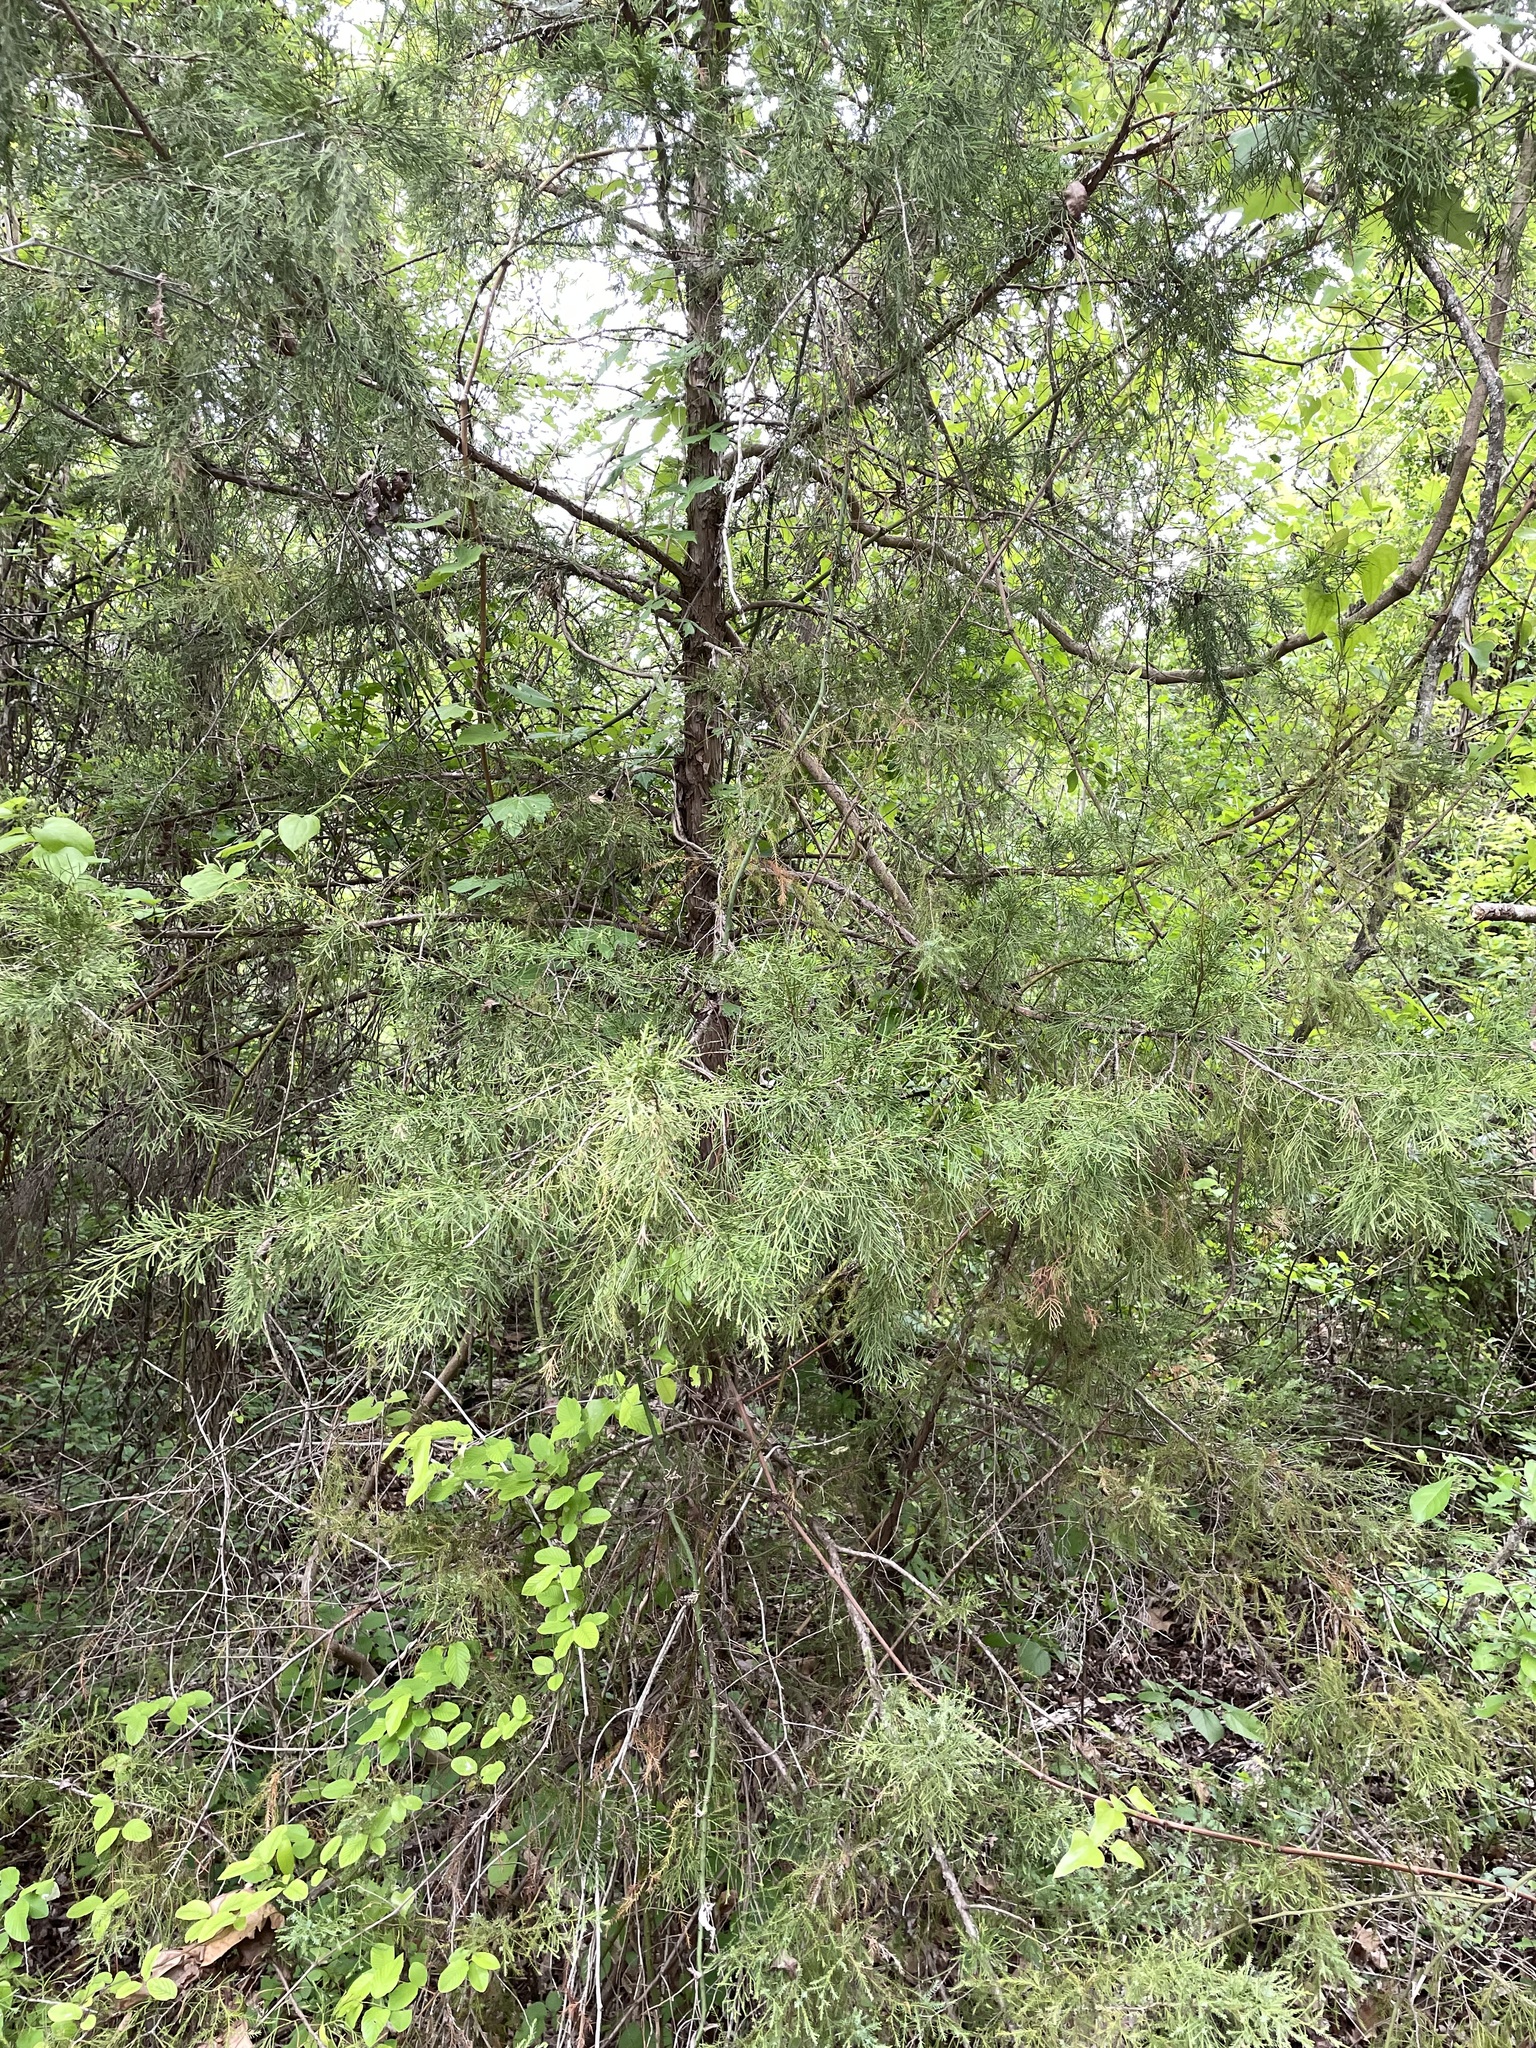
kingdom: Plantae
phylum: Tracheophyta
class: Pinopsida
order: Pinales
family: Cupressaceae
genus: Juniperus
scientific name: Juniperus virginiana
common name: Red juniper
